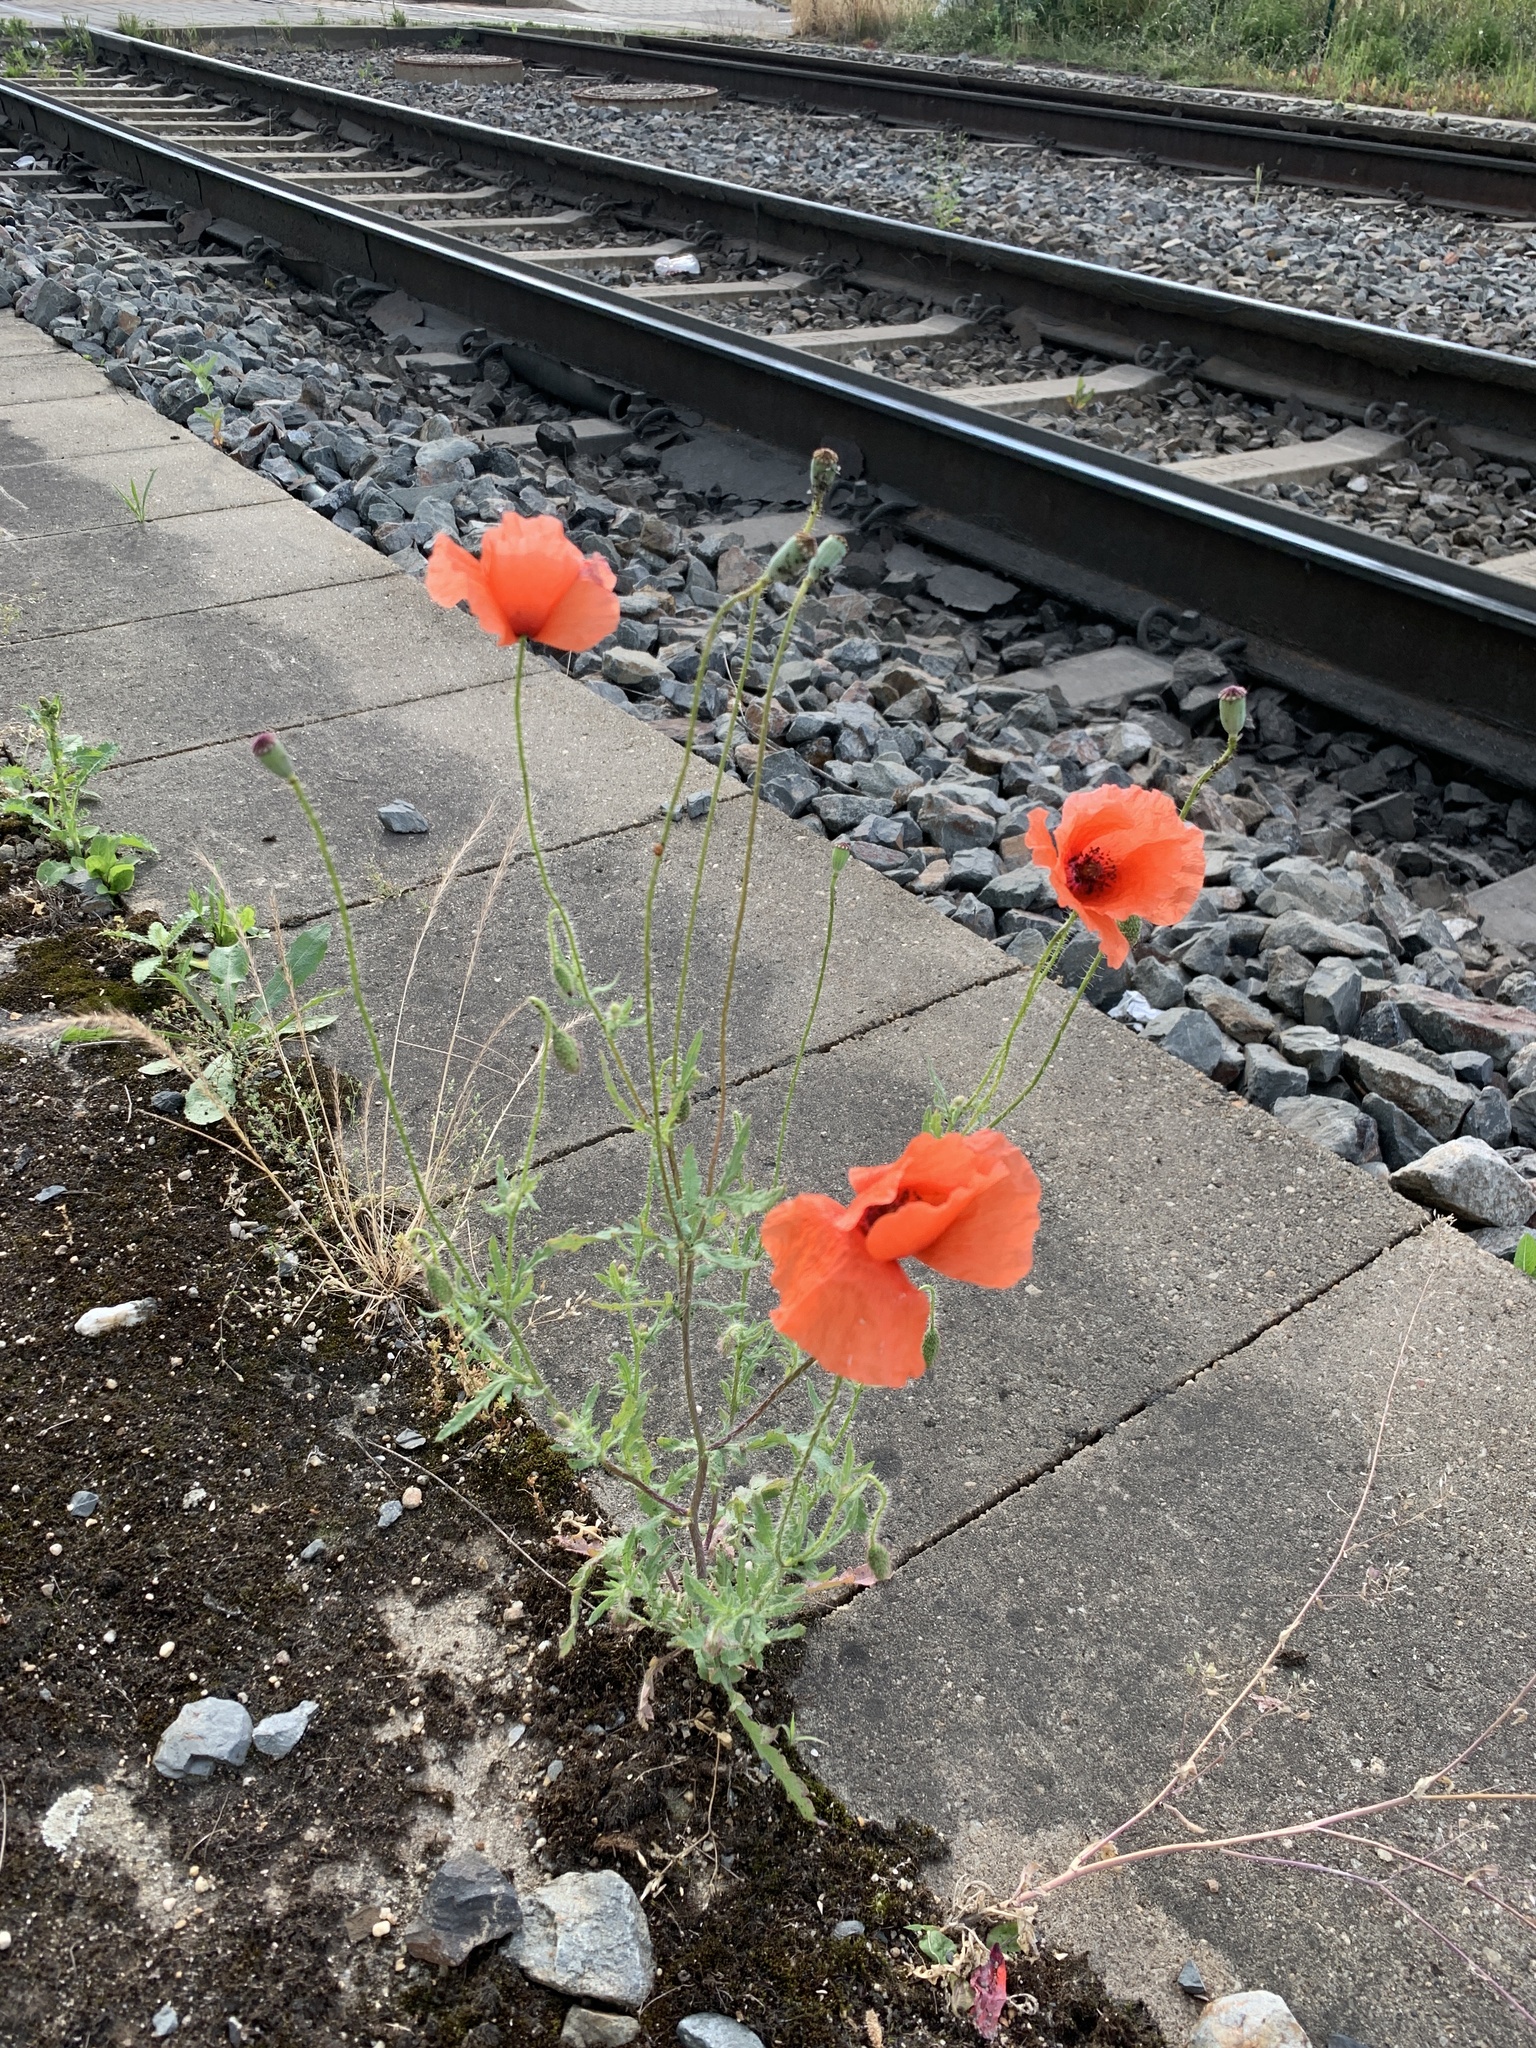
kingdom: Plantae
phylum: Tracheophyta
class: Magnoliopsida
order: Ranunculales
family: Papaveraceae
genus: Papaver
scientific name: Papaver rhoeas
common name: Corn poppy
